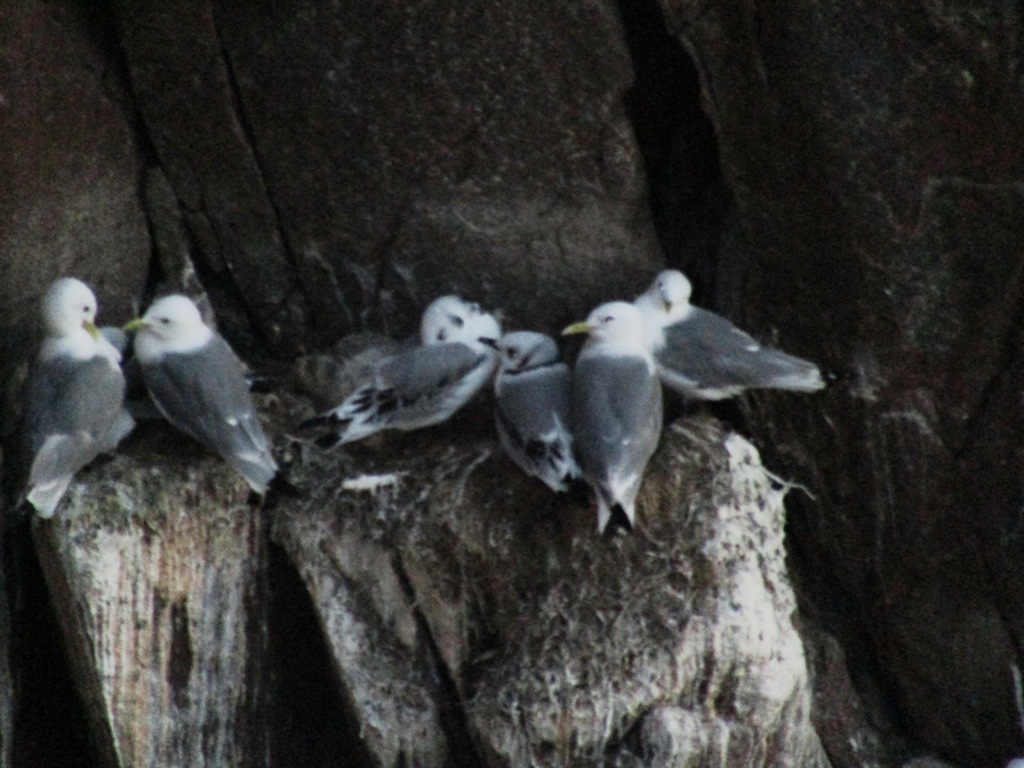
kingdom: Animalia
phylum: Chordata
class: Aves
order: Charadriiformes
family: Laridae
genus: Rissa
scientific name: Rissa tridactyla
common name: Black-legged kittiwake
